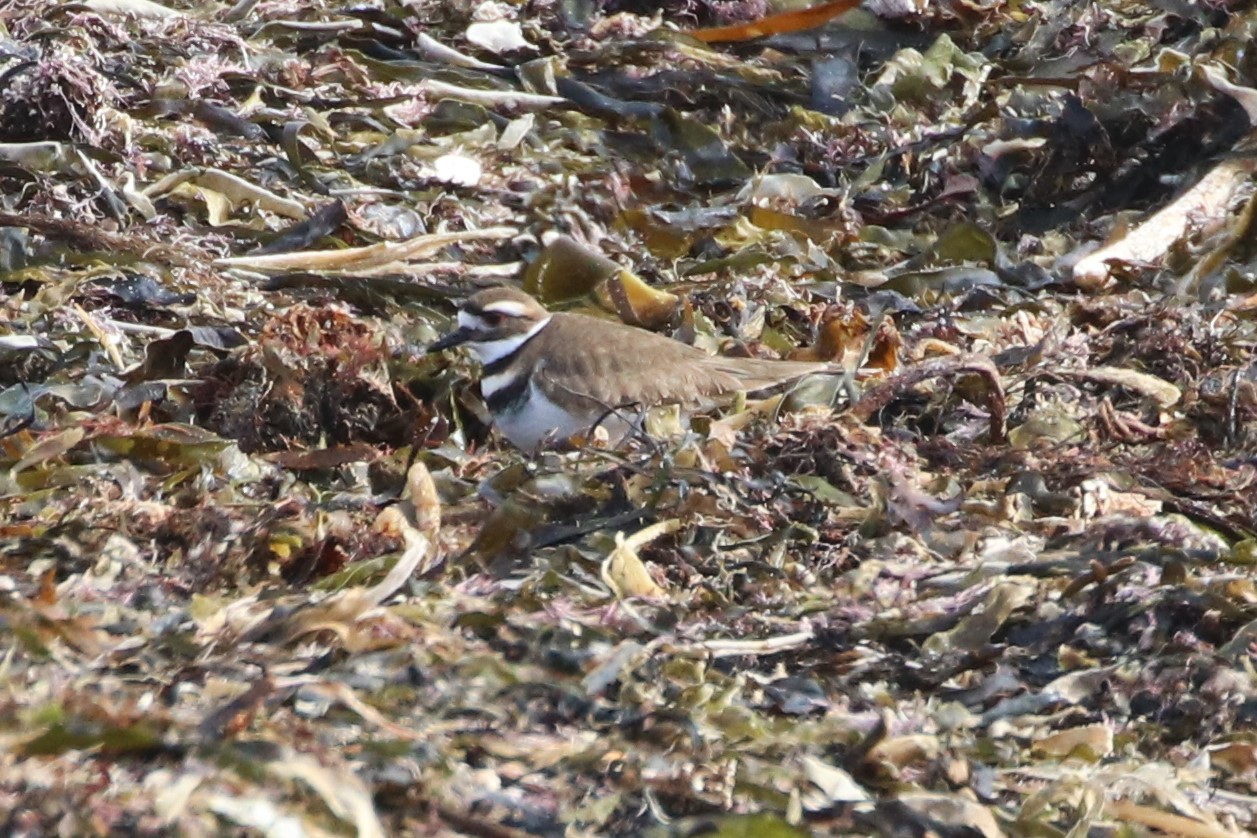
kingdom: Animalia
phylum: Chordata
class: Aves
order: Charadriiformes
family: Charadriidae
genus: Charadrius
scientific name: Charadrius vociferus
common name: Killdeer
